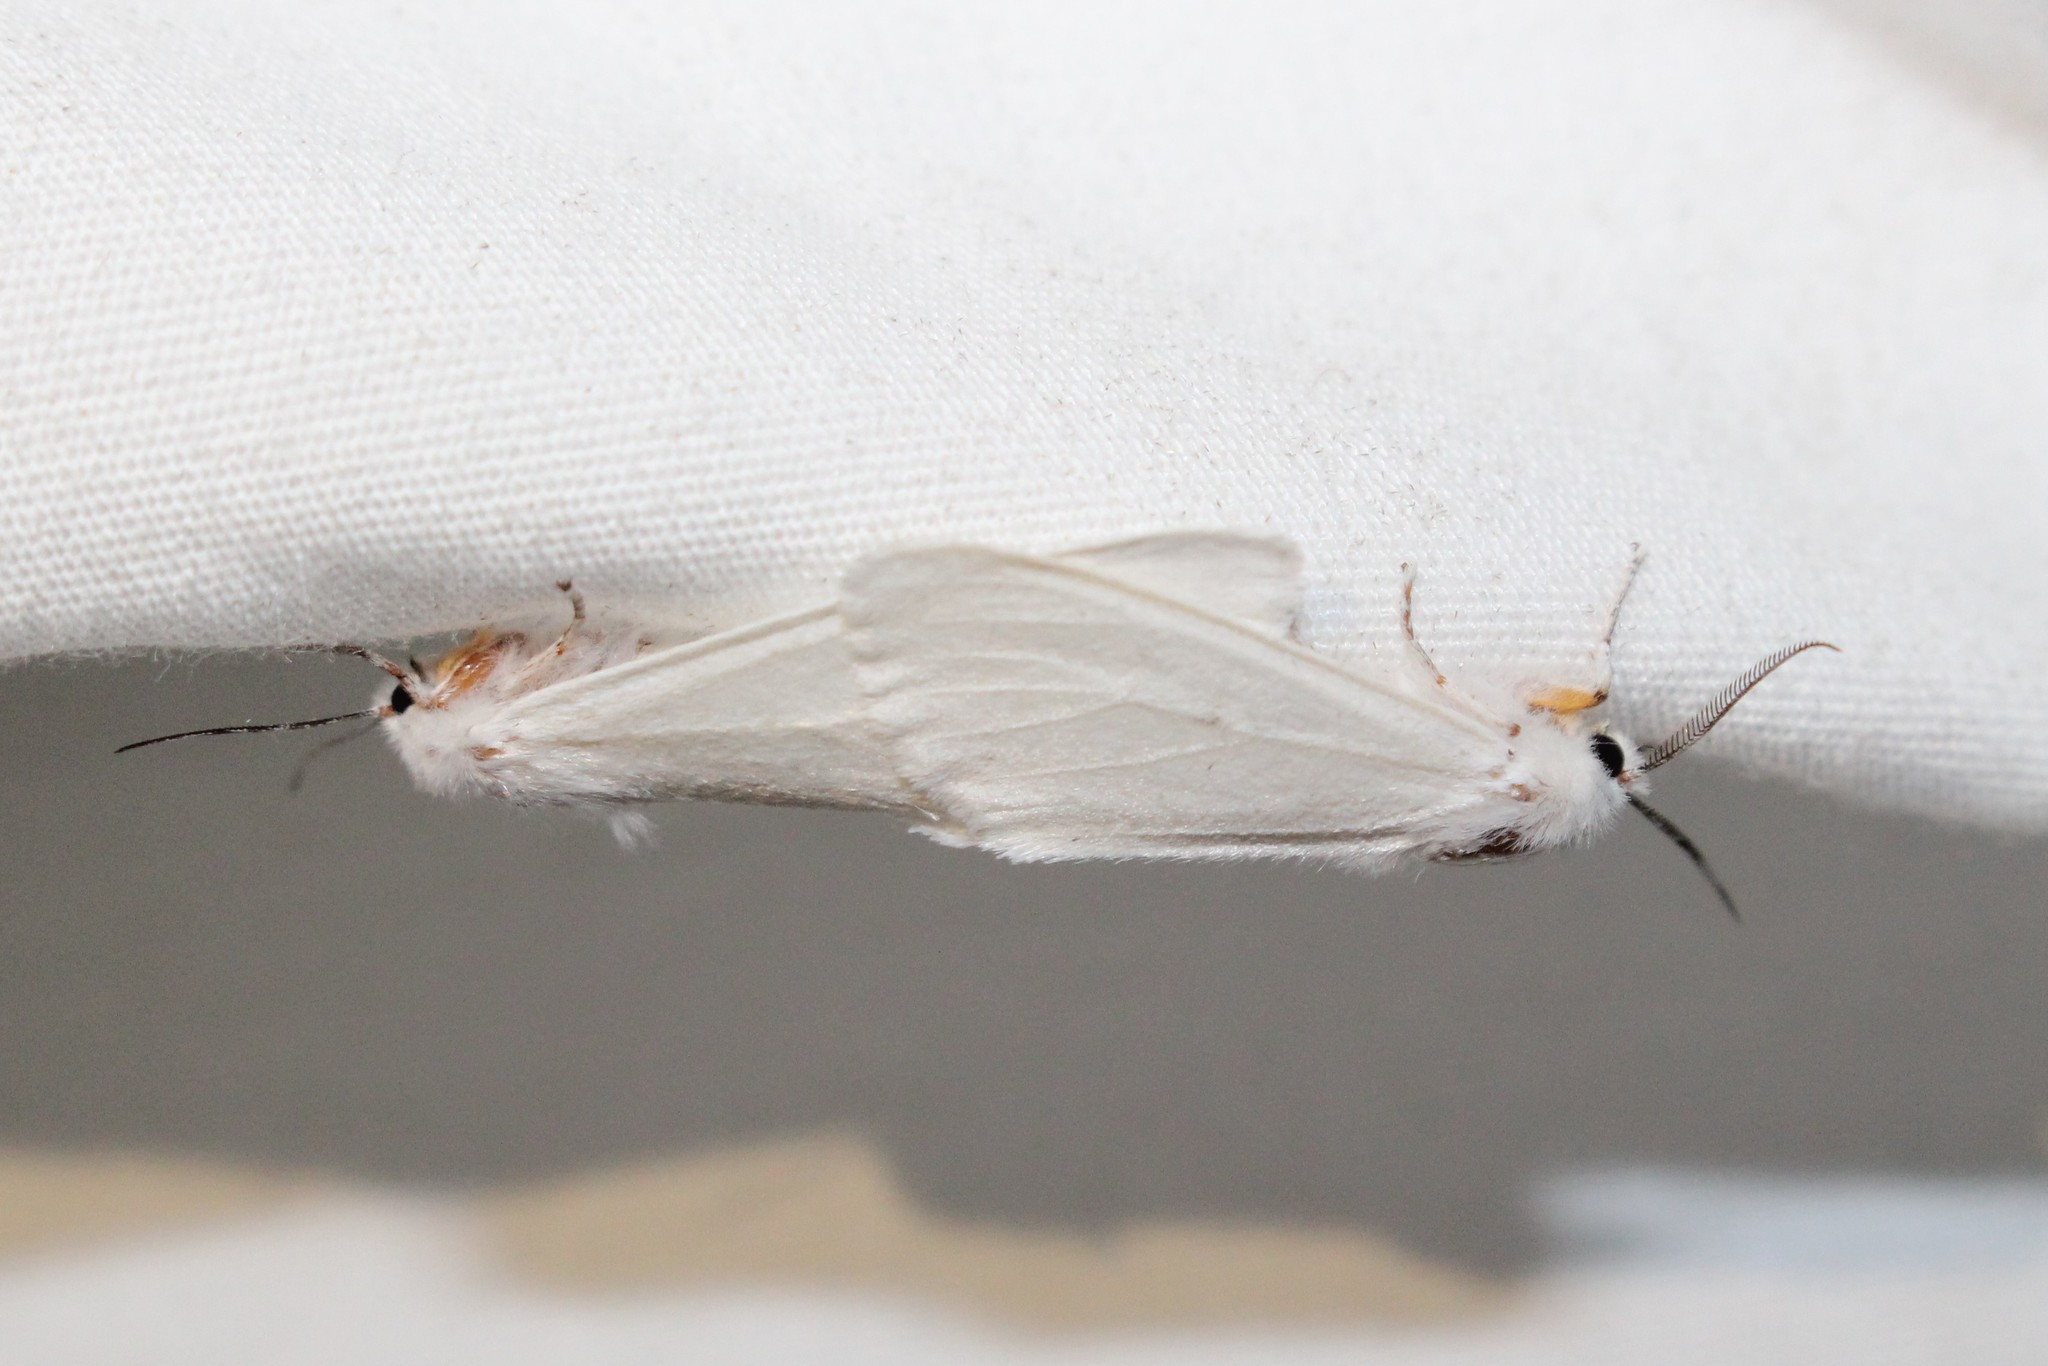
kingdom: Animalia
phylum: Arthropoda
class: Insecta
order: Lepidoptera
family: Erebidae
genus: Hyphantria
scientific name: Hyphantria cunea
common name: American white moth
